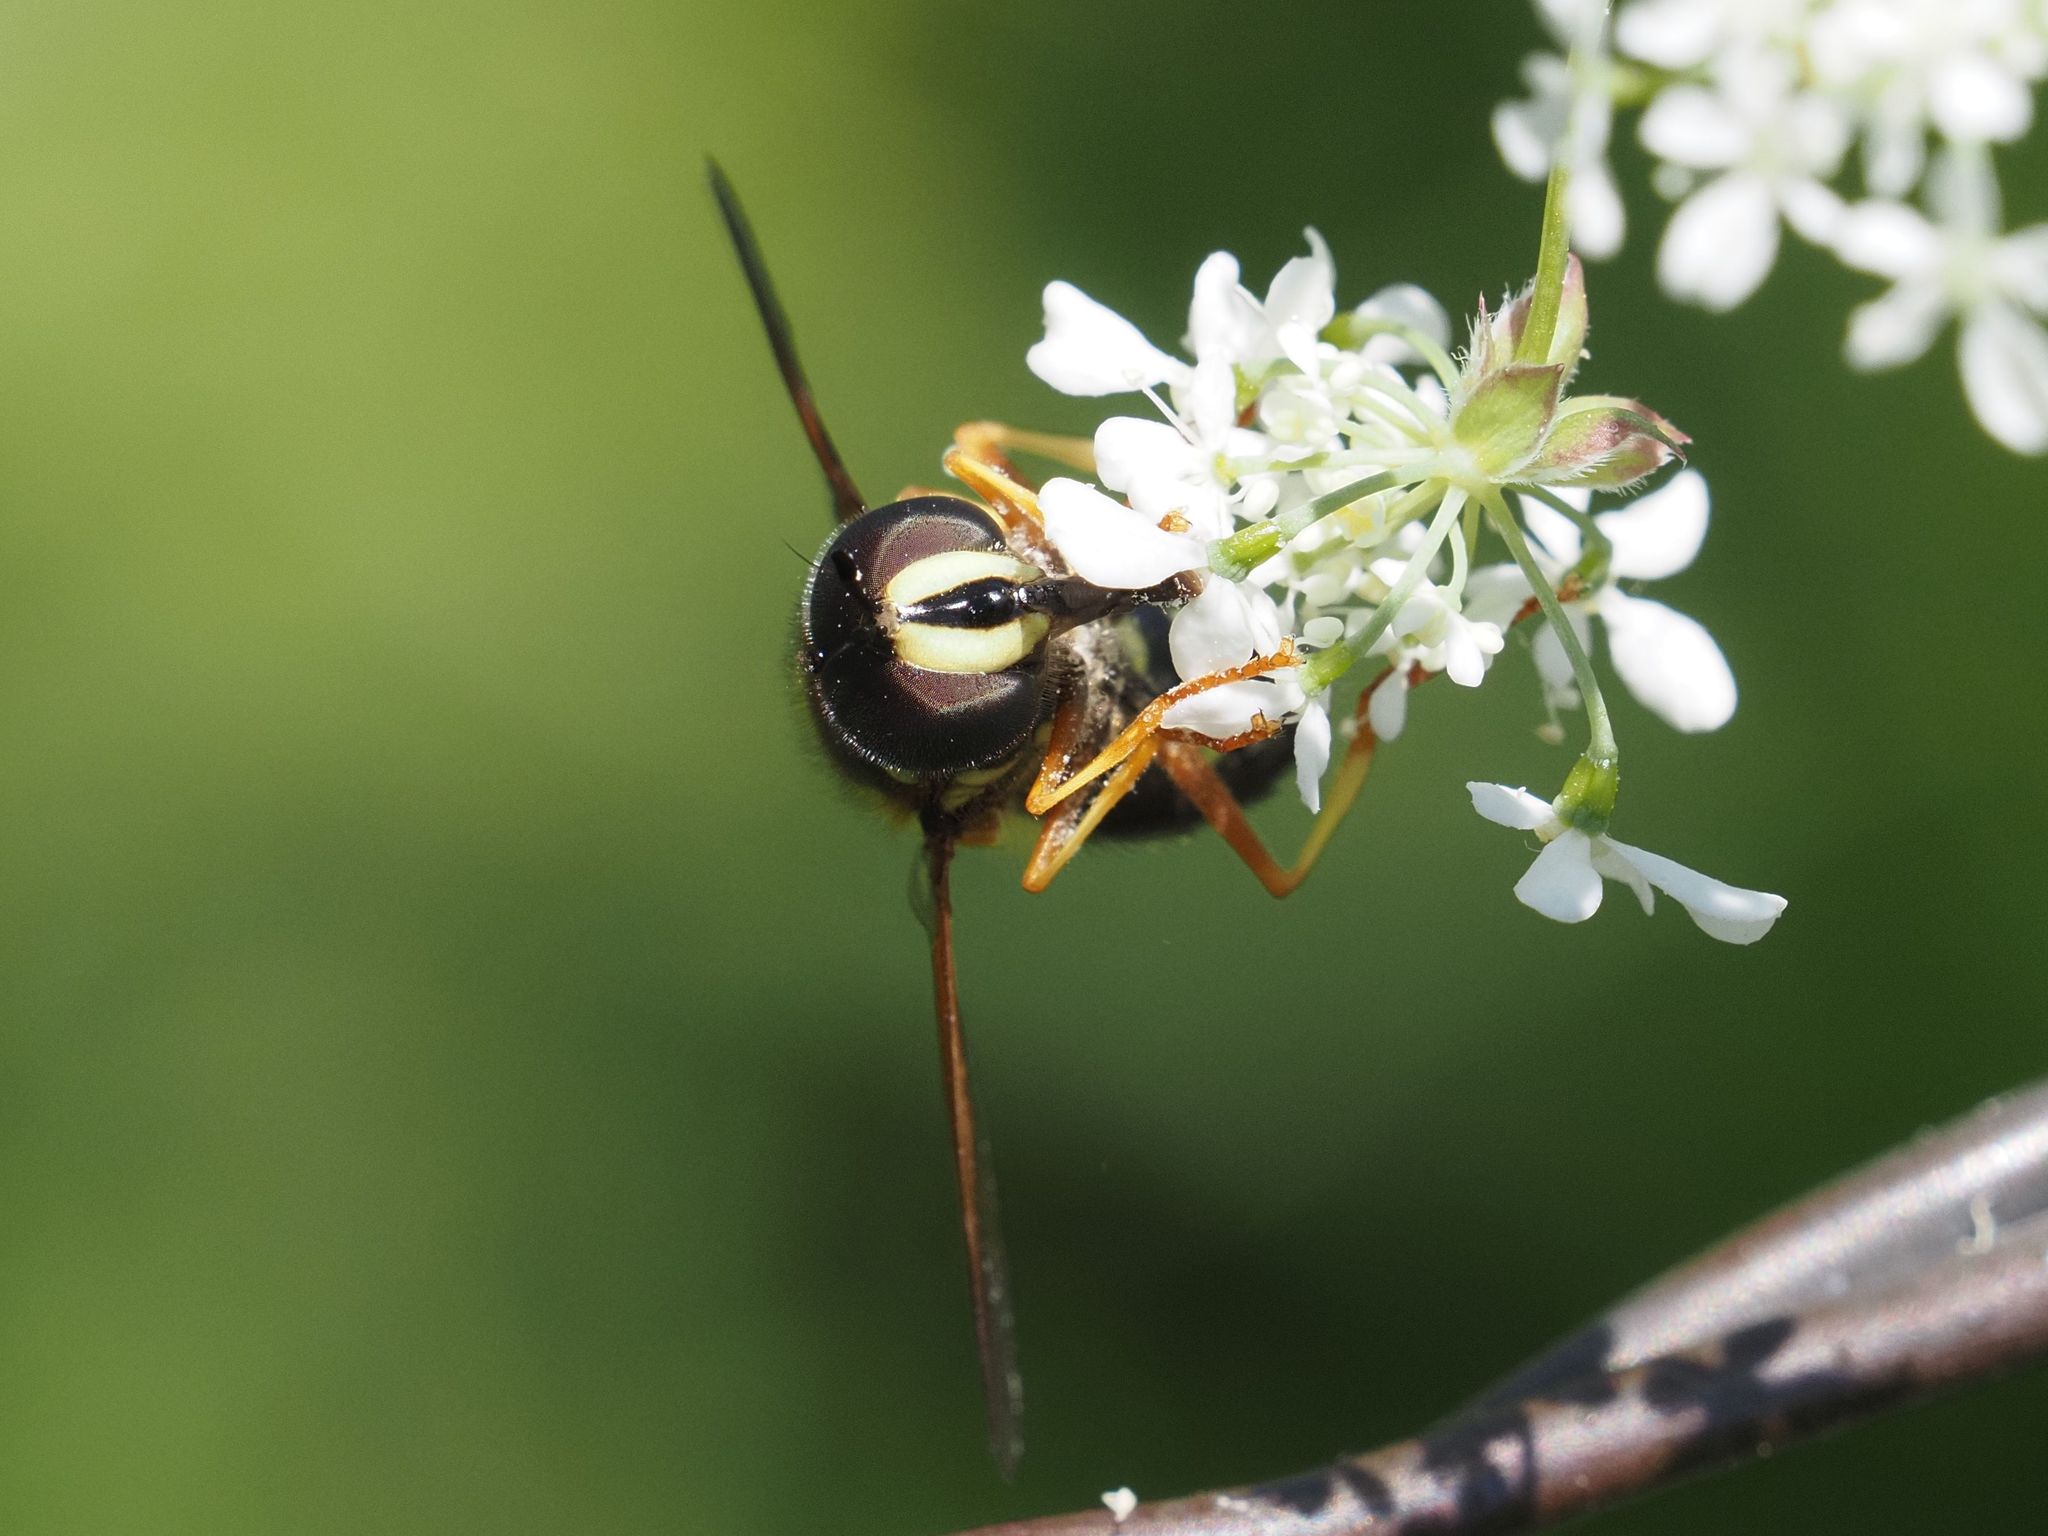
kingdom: Animalia
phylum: Arthropoda
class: Insecta
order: Diptera
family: Syrphidae
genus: Chrysotoxum
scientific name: Chrysotoxum festivum
